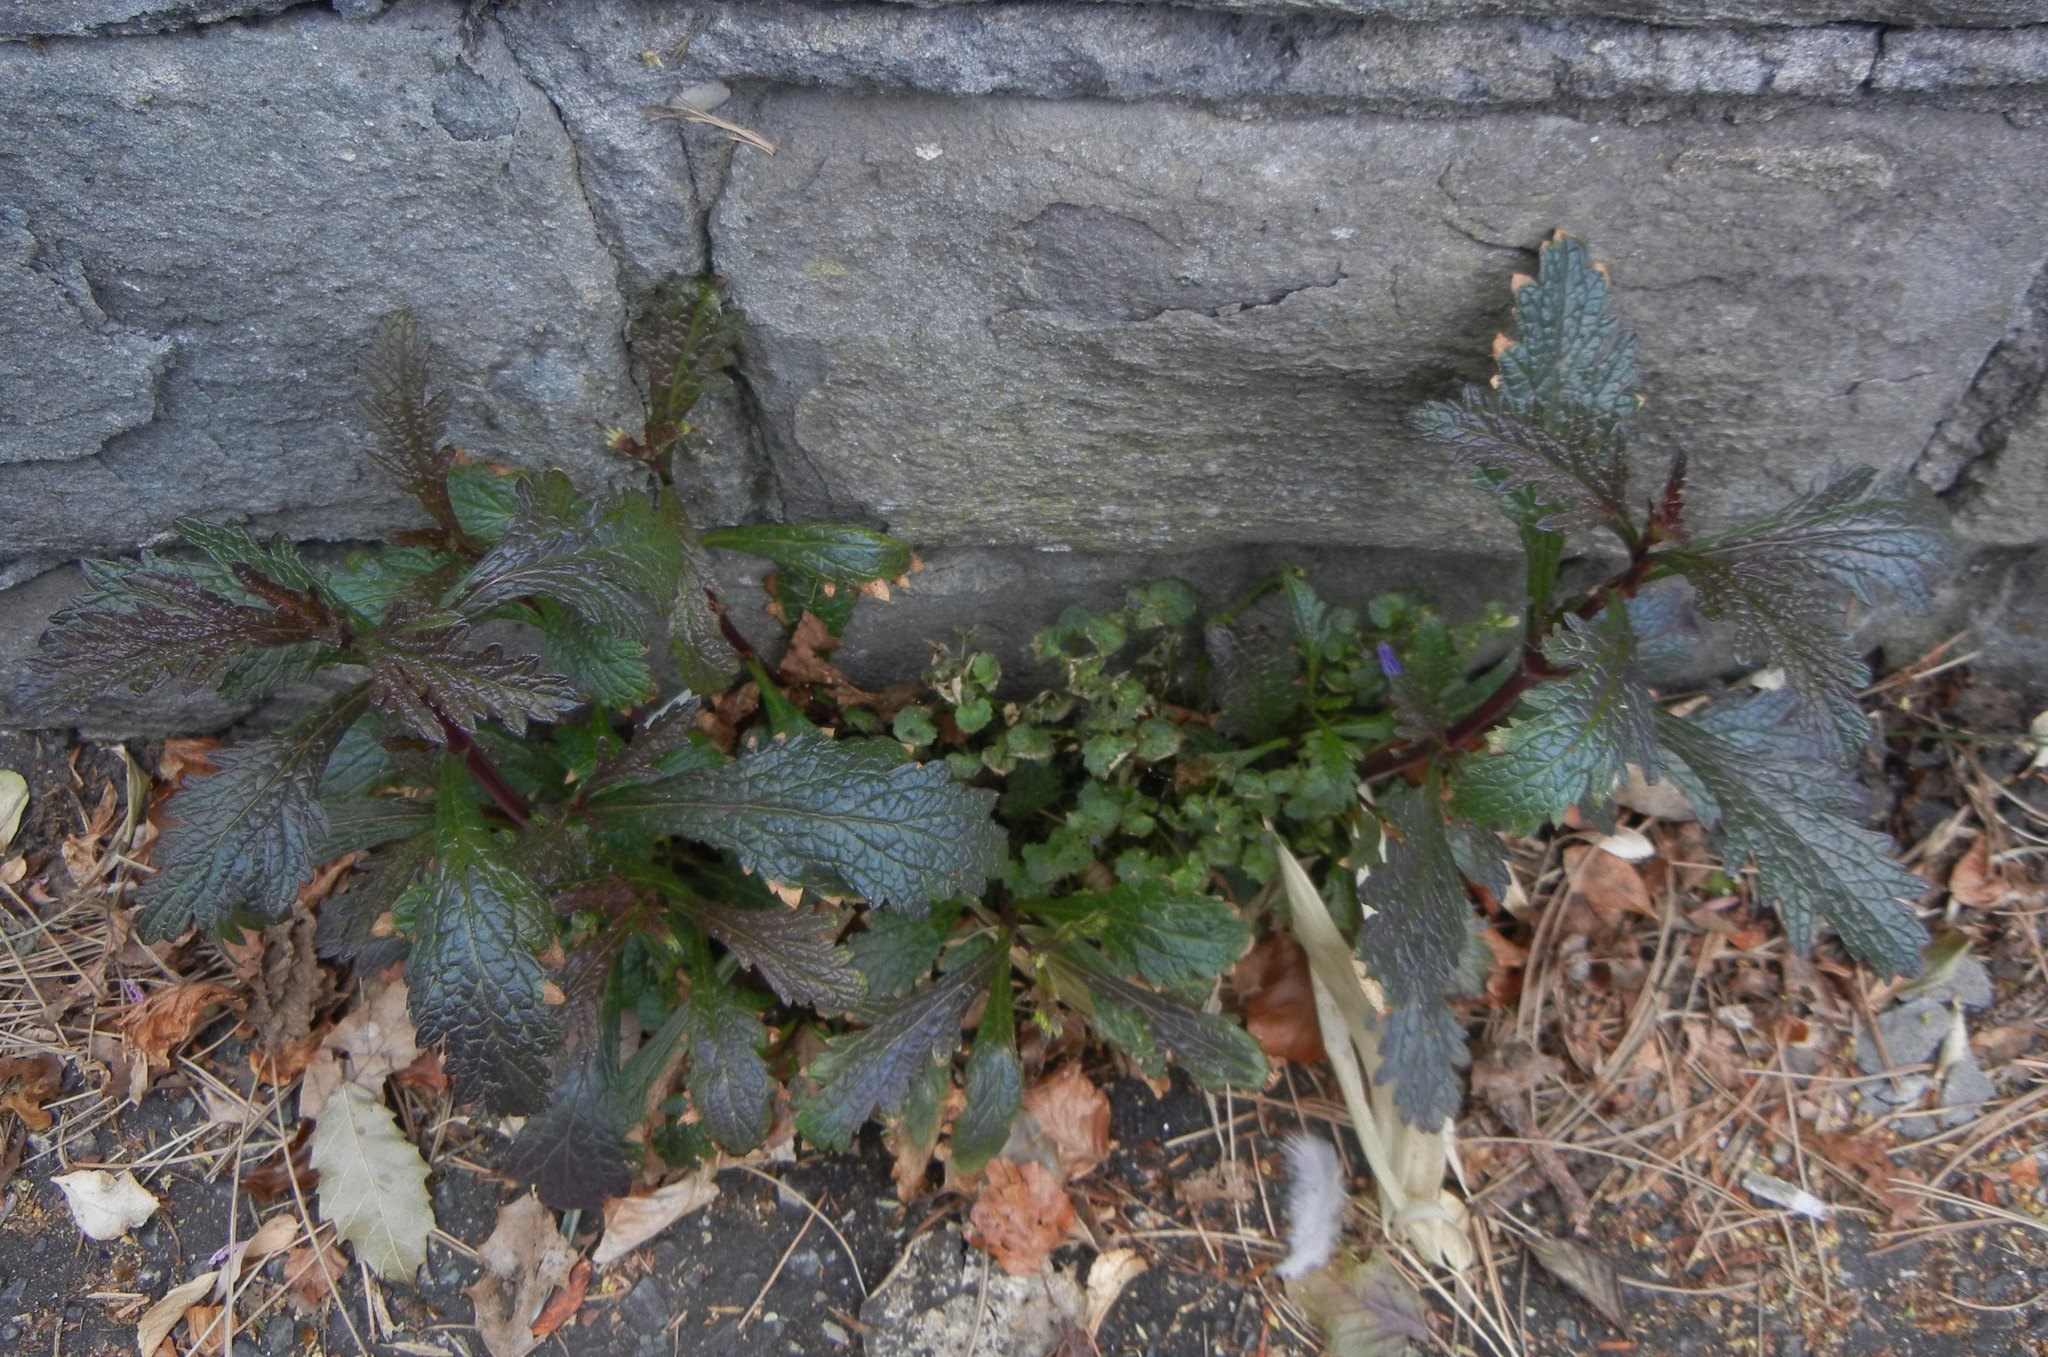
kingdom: Plantae
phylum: Tracheophyta
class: Magnoliopsida
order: Lamiales
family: Verbenaceae
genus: Verbena
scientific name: Verbena officinalis
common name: Vervain
